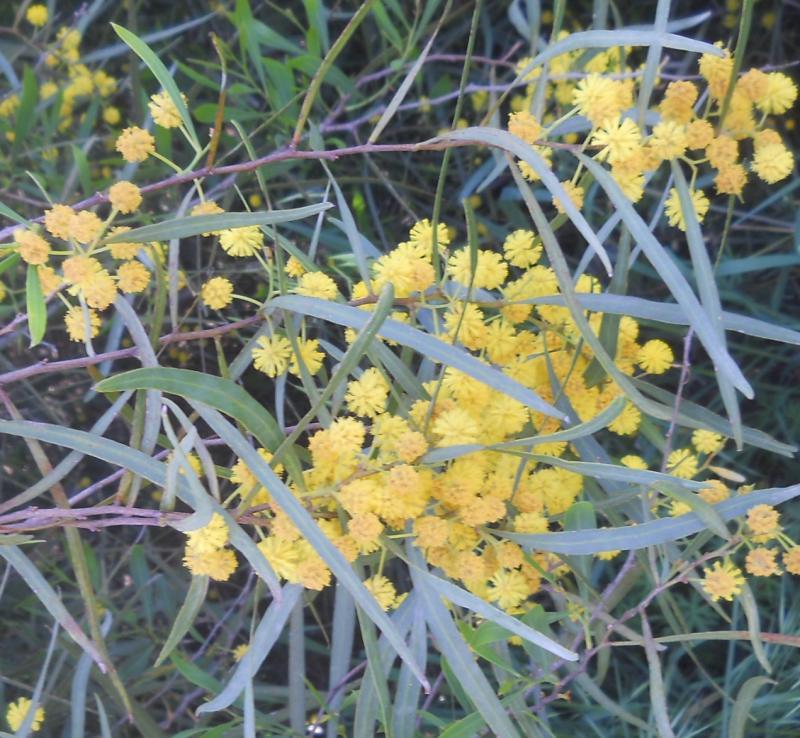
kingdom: Plantae
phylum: Tracheophyta
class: Magnoliopsida
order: Fabales
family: Fabaceae
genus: Acacia
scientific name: Acacia saligna
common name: Orange wattle
